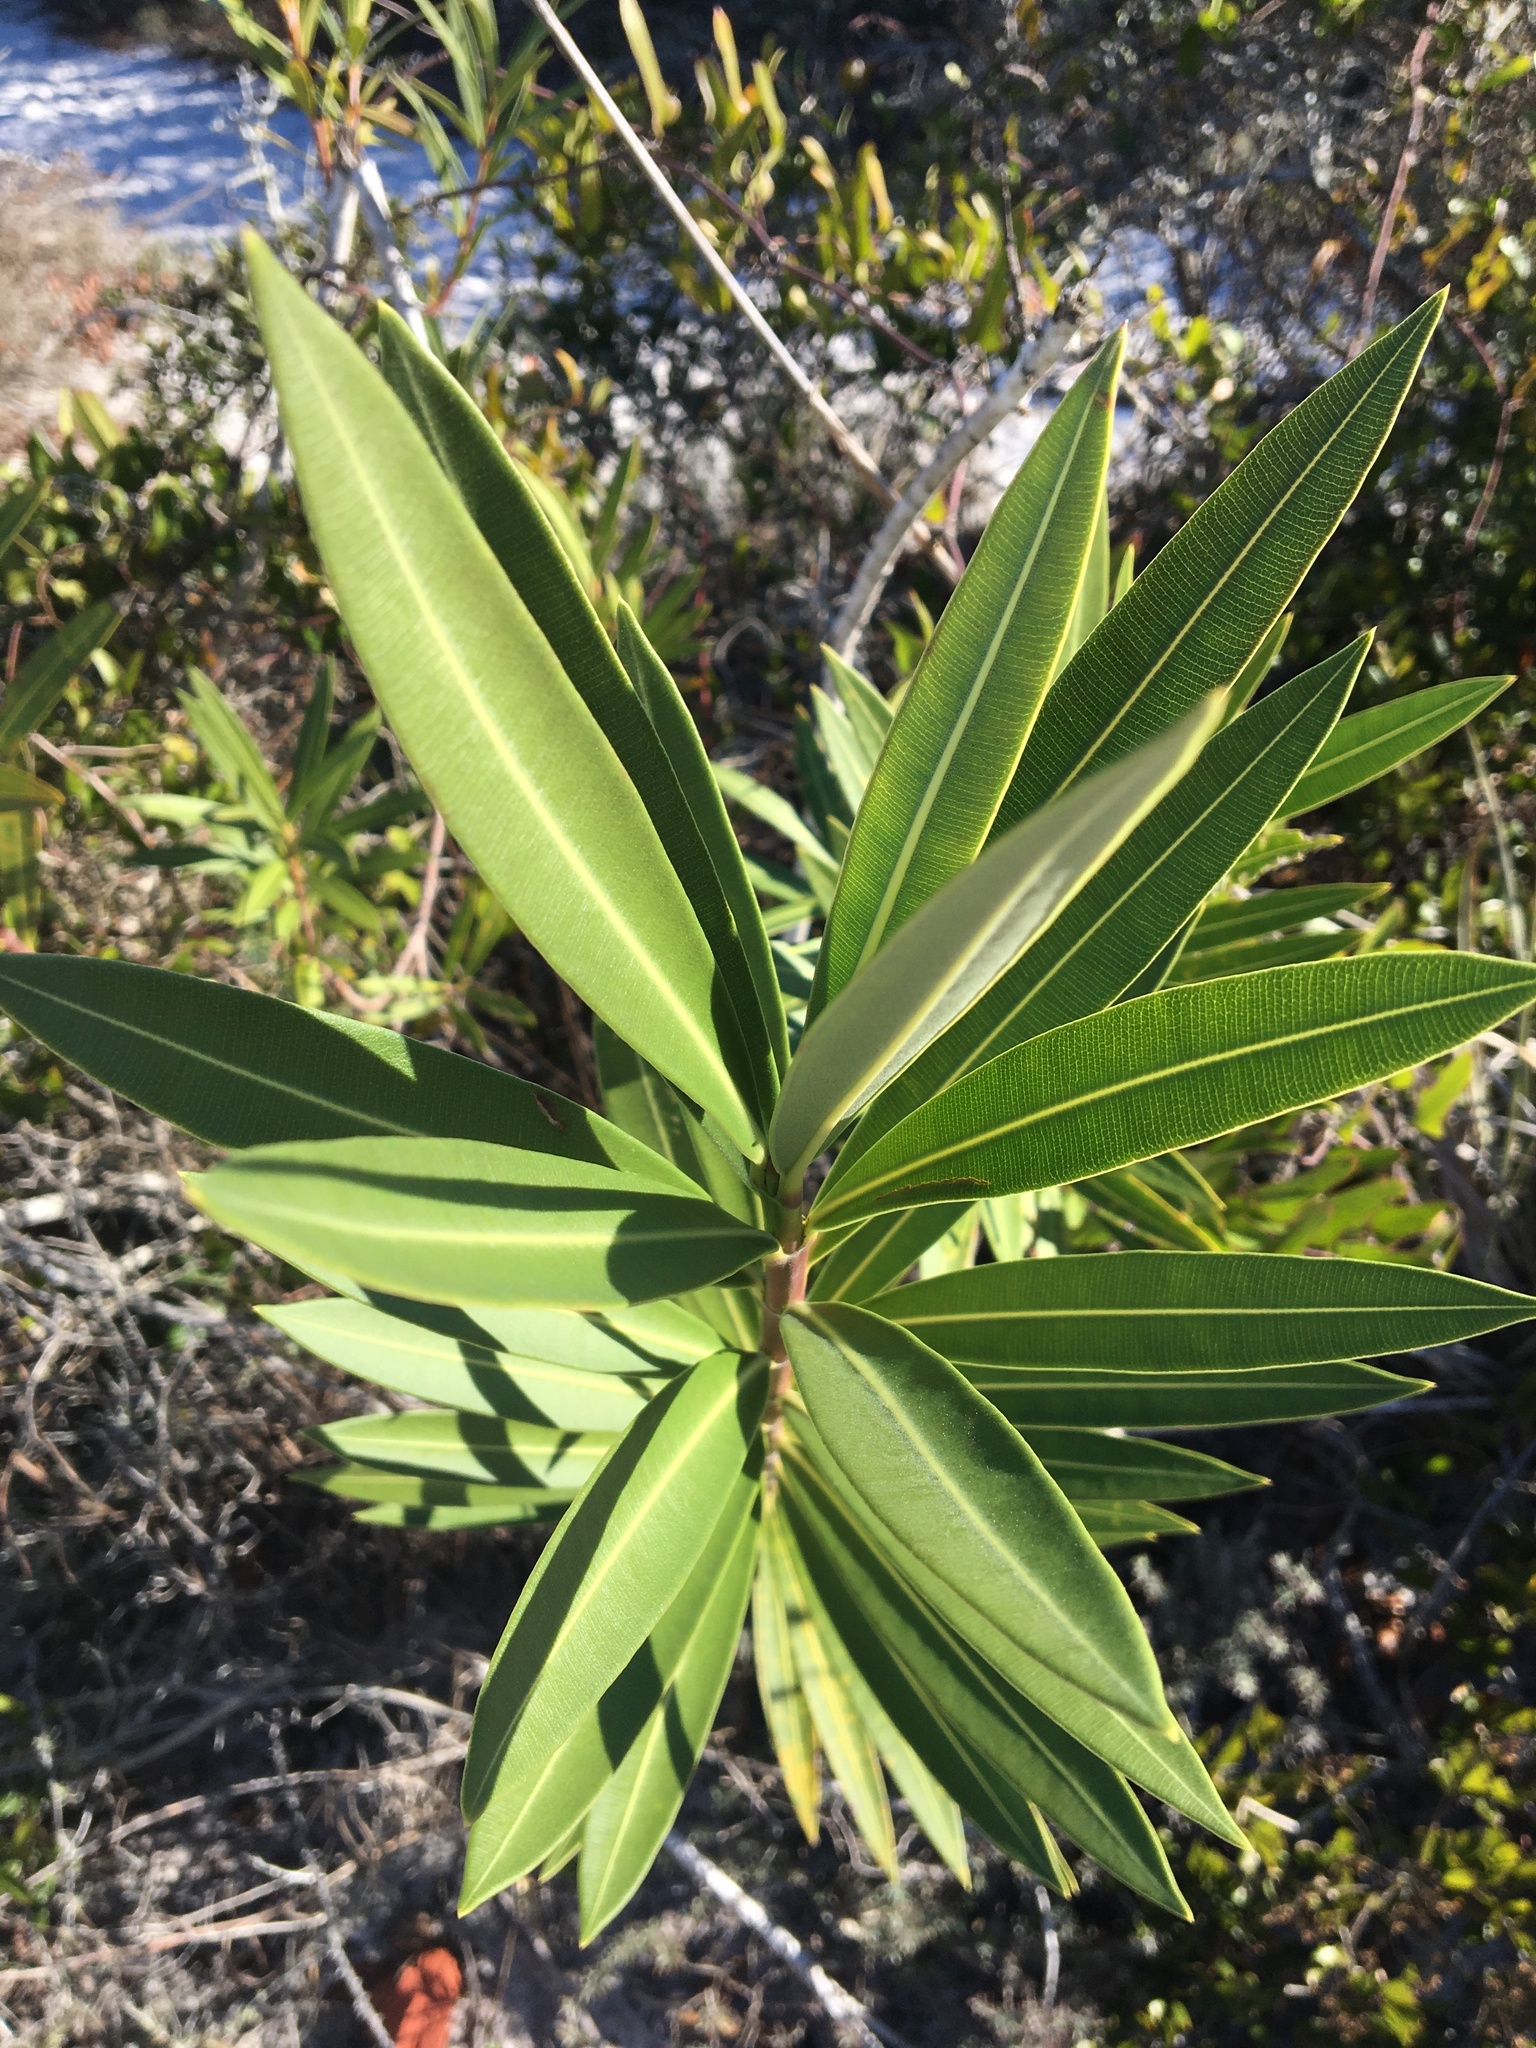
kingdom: Plantae
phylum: Tracheophyta
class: Magnoliopsida
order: Gentianales
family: Apocynaceae
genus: Nerium
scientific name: Nerium oleander
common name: Oleander
